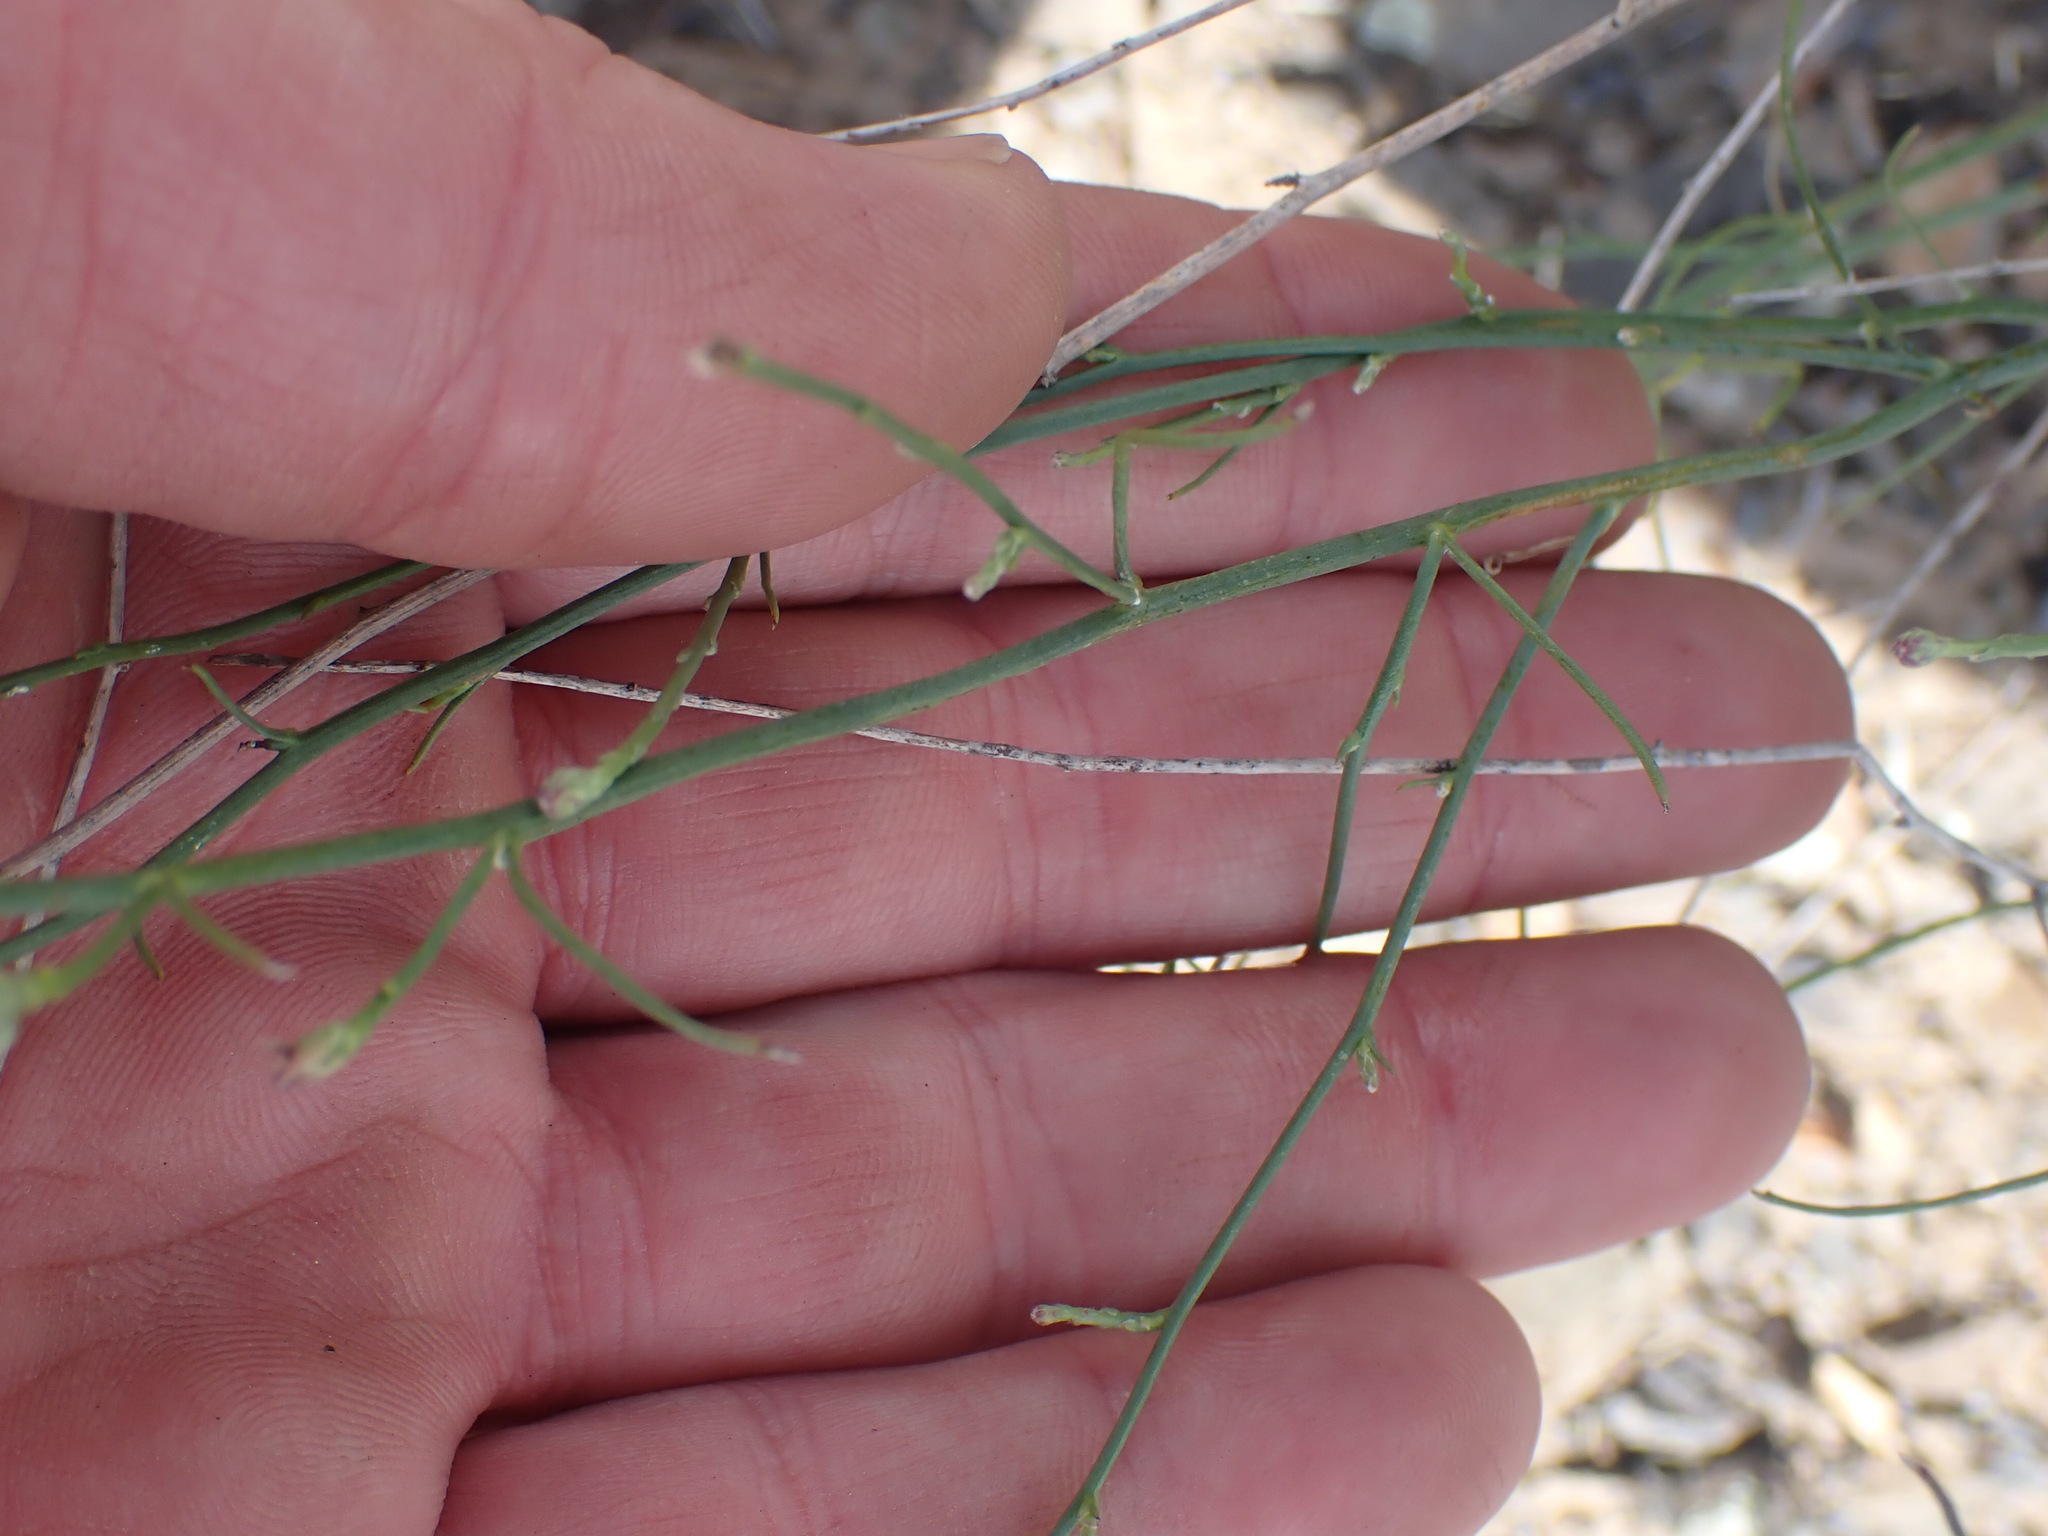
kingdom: Plantae
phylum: Tracheophyta
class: Magnoliopsida
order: Asterales
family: Asteraceae
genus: Lygodesmia
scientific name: Lygodesmia juncea
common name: Common skeletonweed
